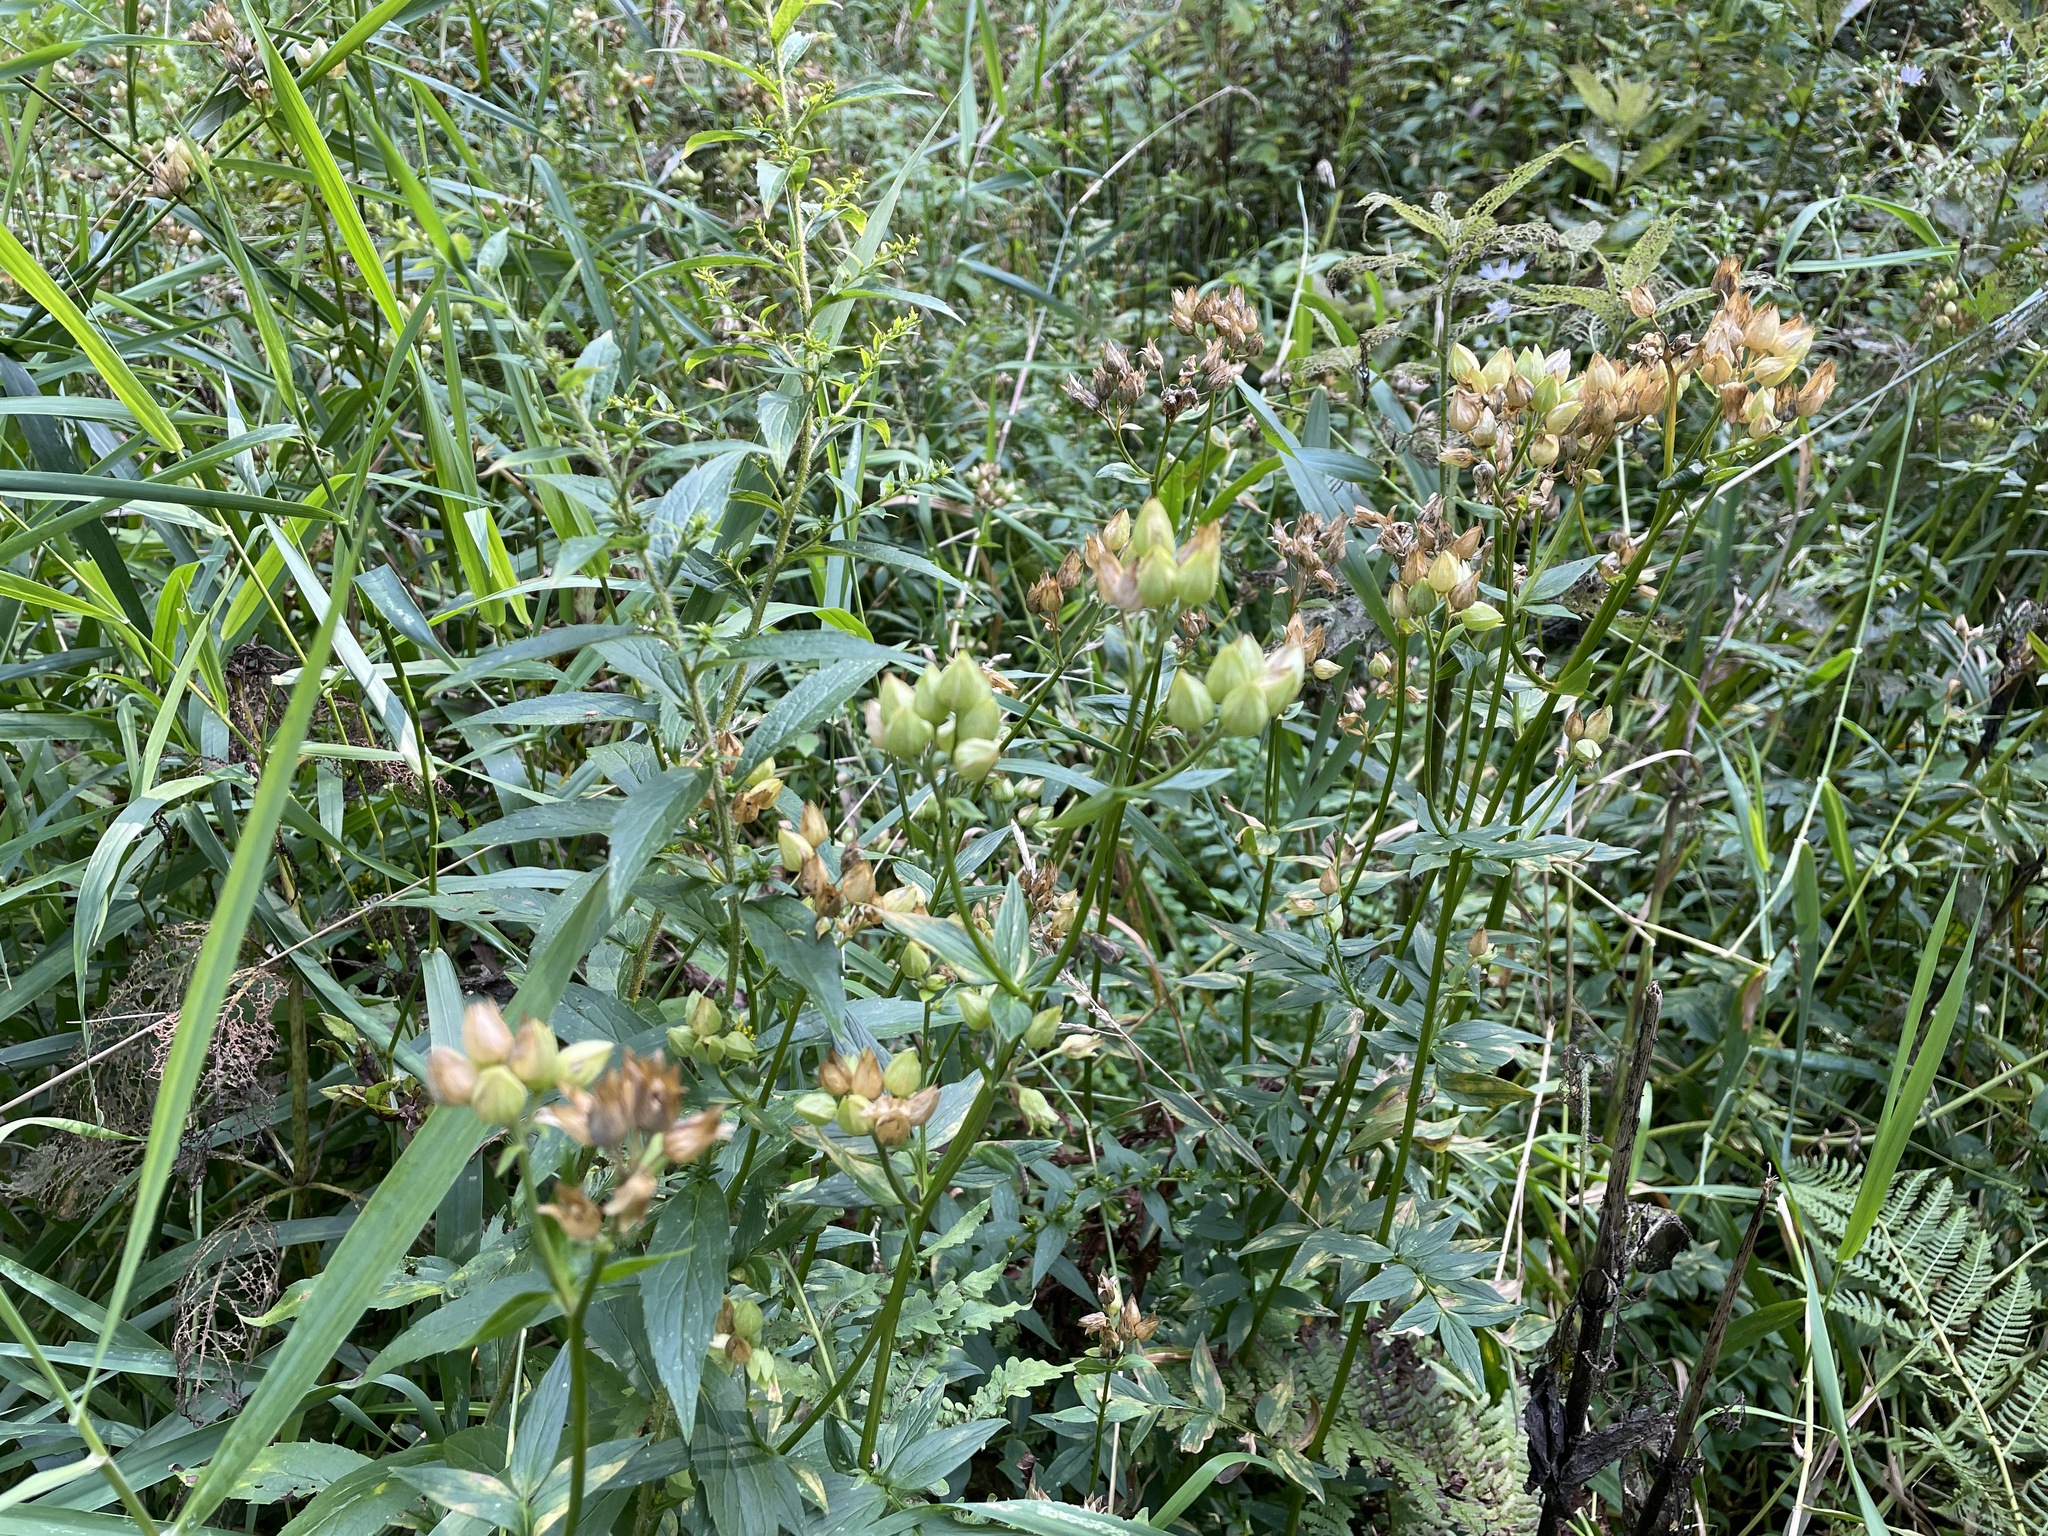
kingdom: Plantae
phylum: Tracheophyta
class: Magnoliopsida
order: Ericales
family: Polemoniaceae
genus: Polemonium
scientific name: Polemonium vanbruntiae
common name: Bog jacob's-ladder
